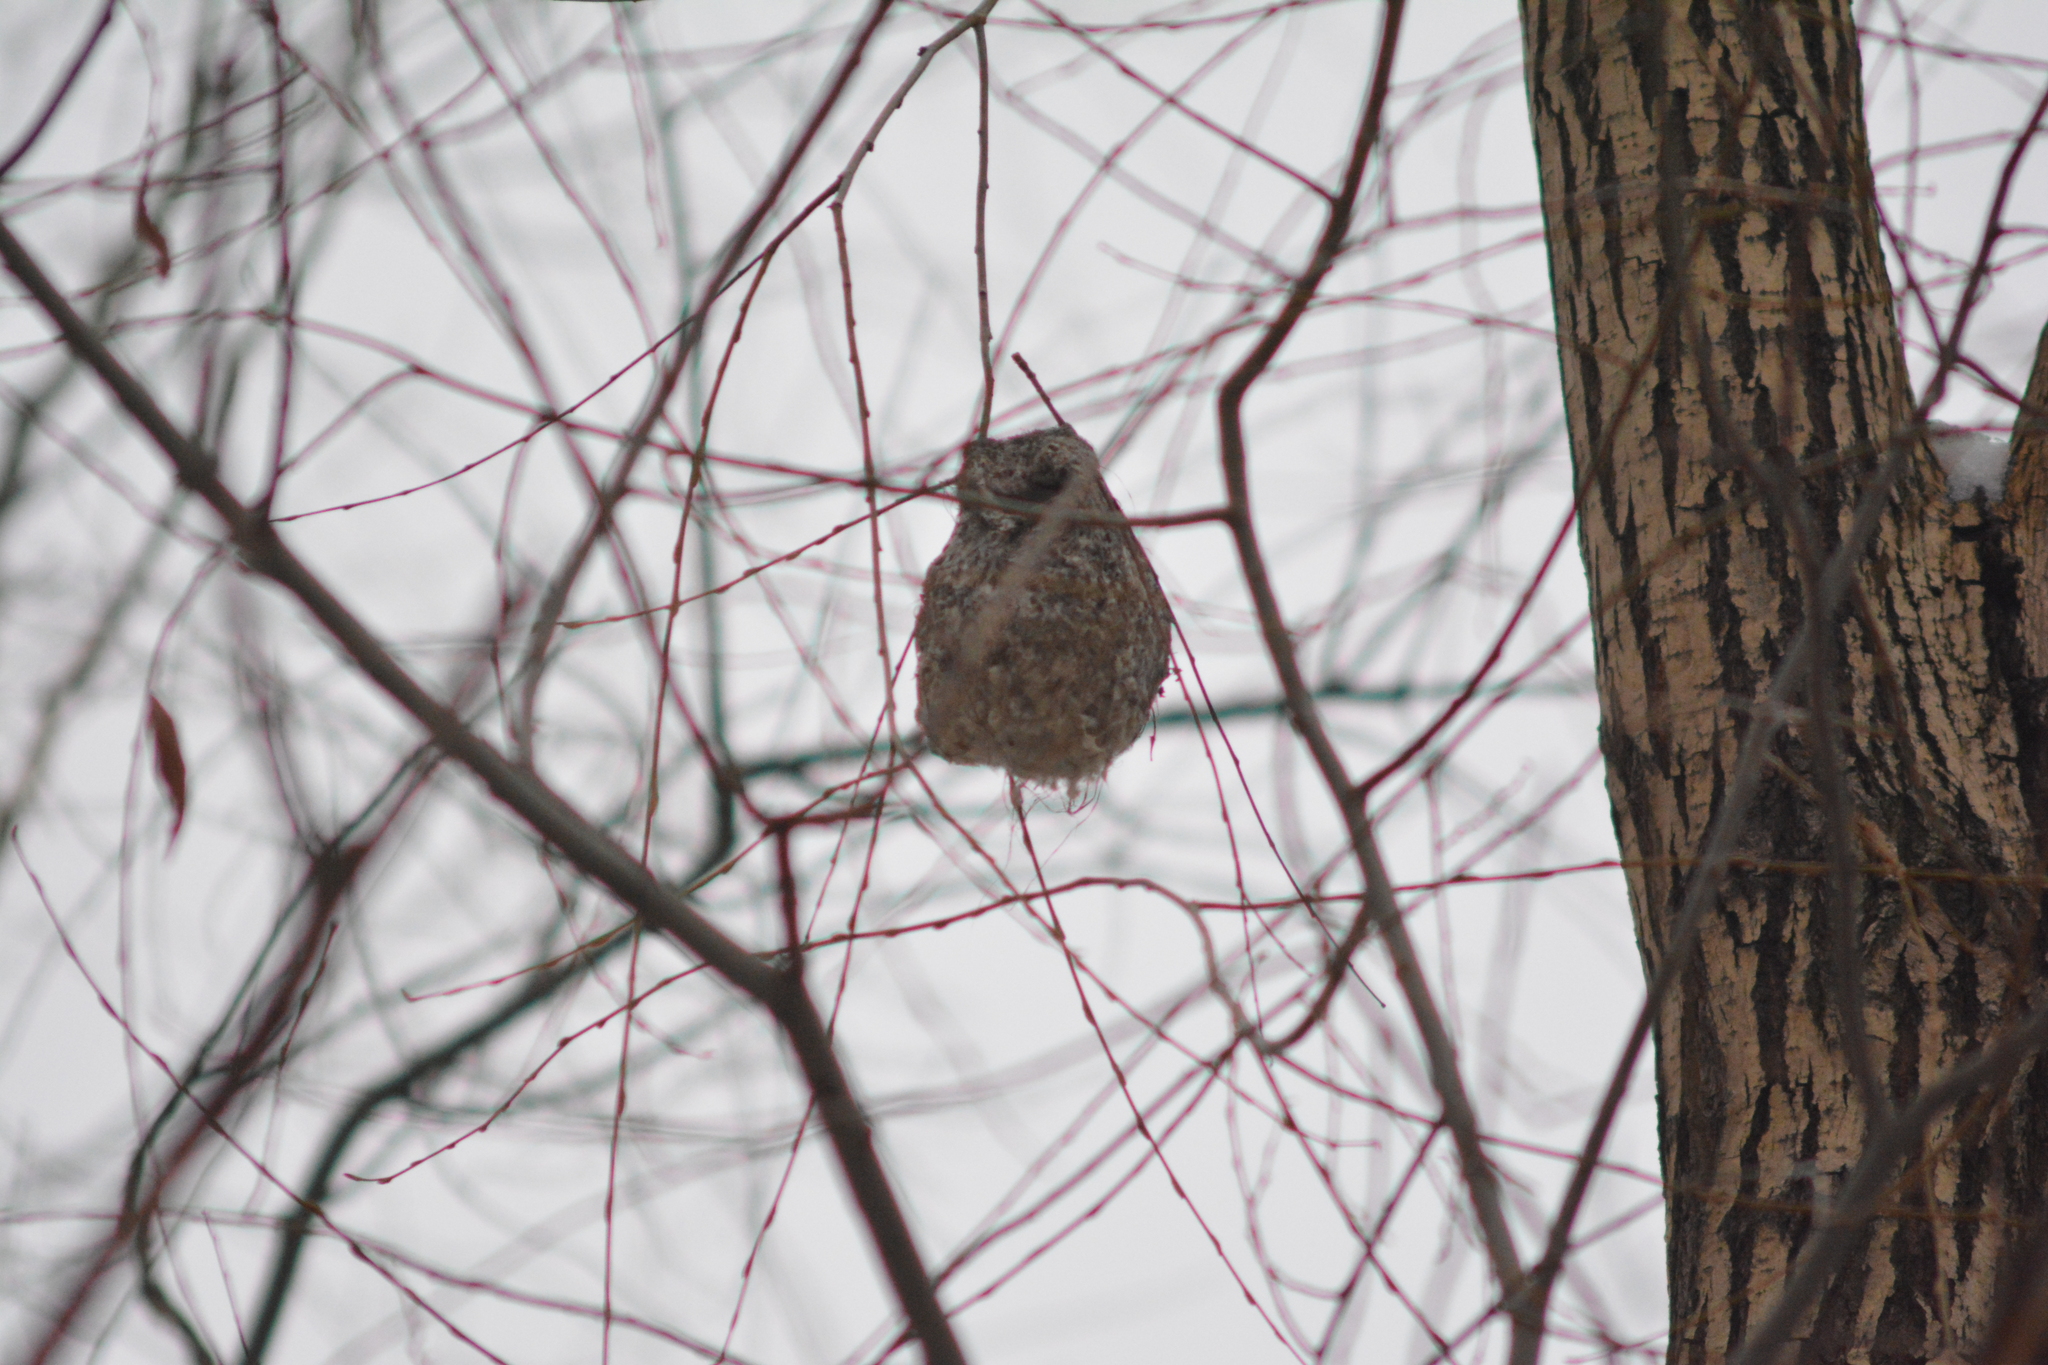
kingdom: Animalia
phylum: Chordata
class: Aves
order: Passeriformes
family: Remizidae
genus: Remiz
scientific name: Remiz pendulinus
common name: Eurasian penduline tit
